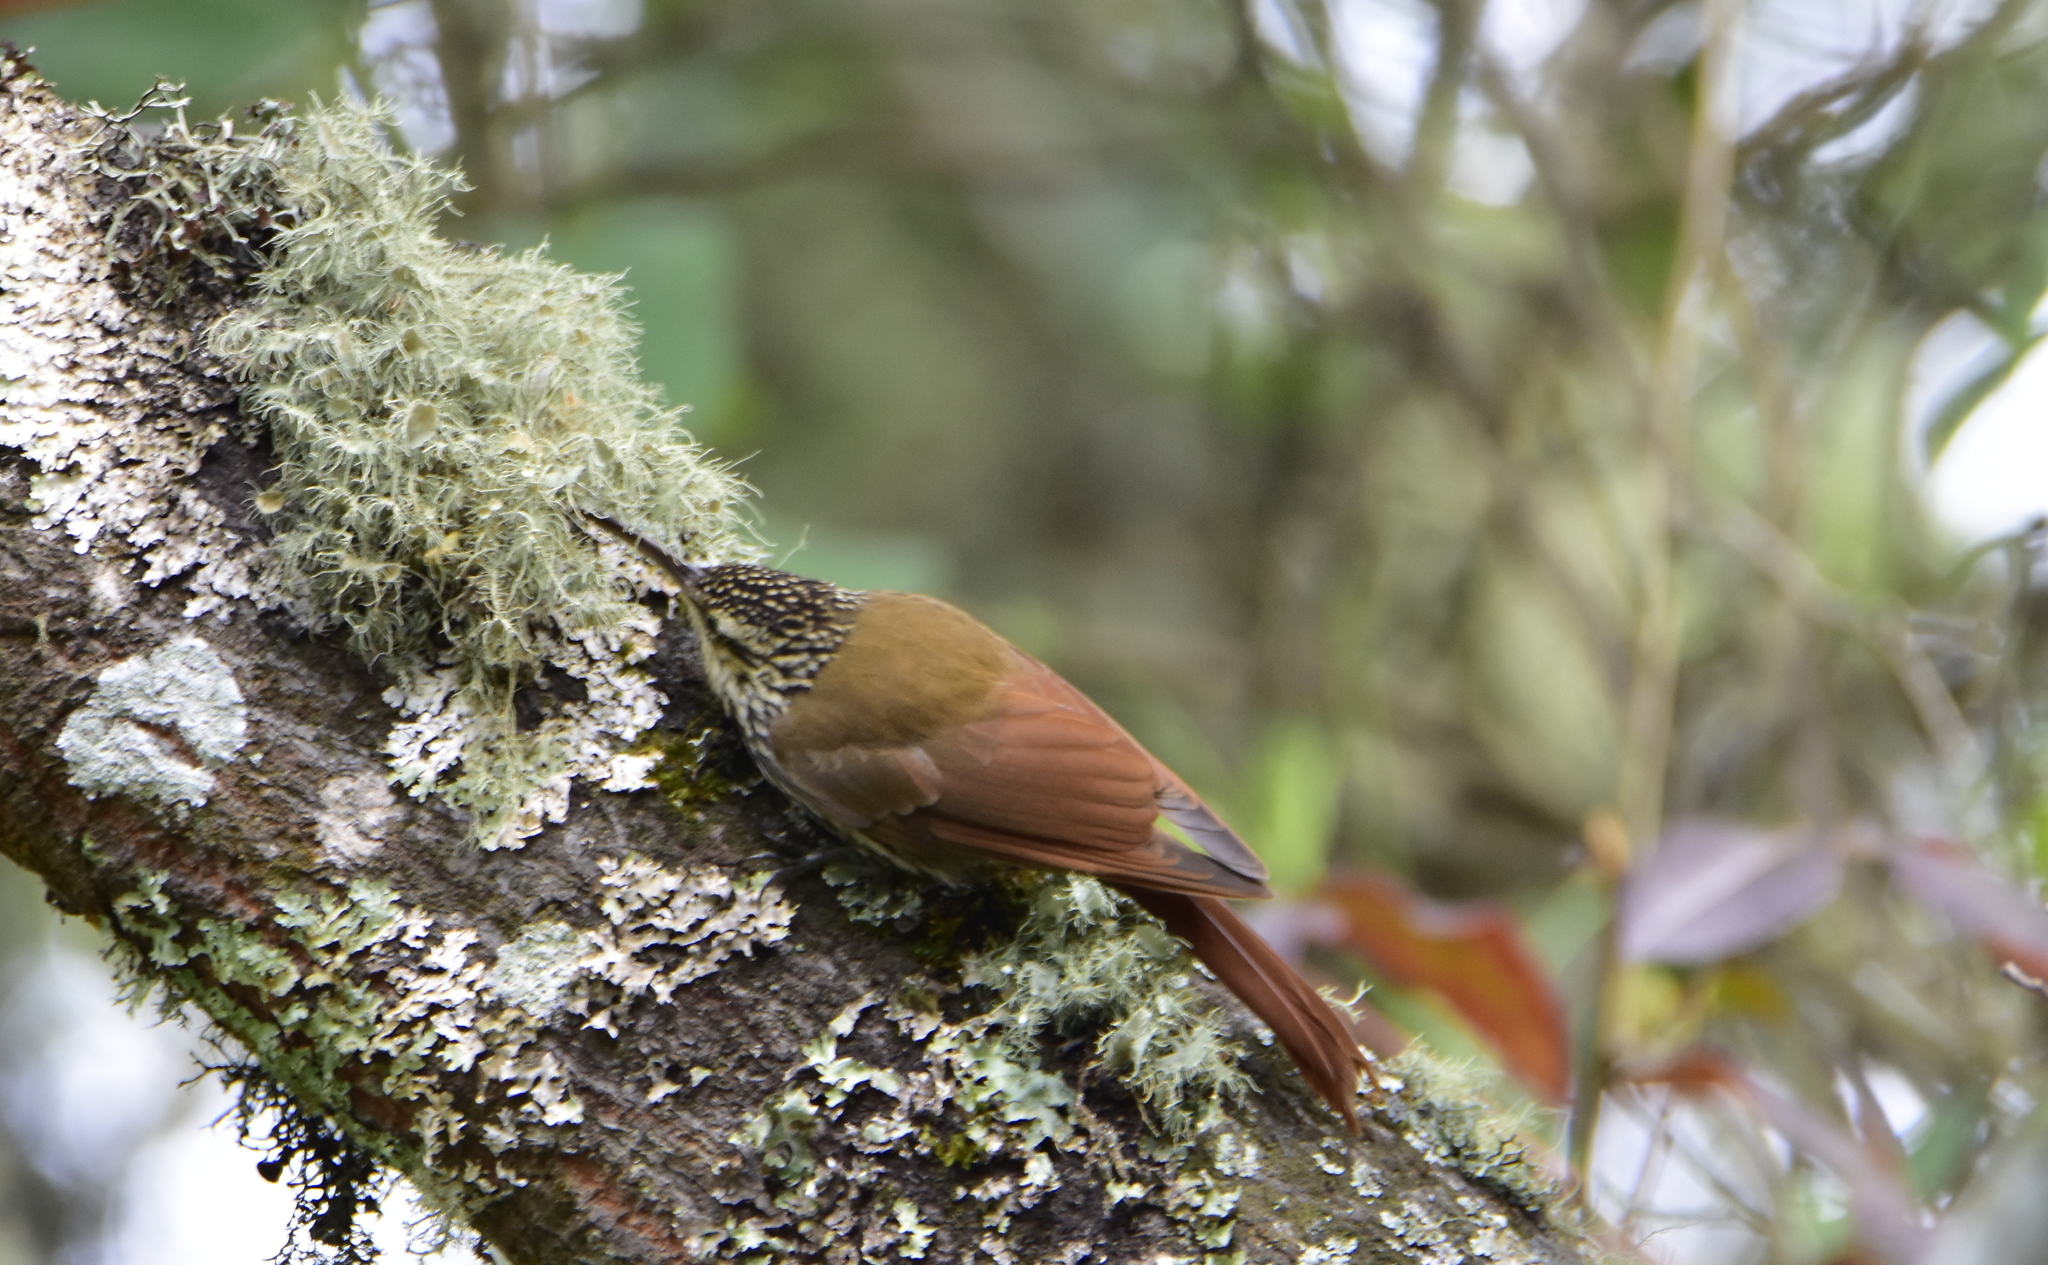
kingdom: Animalia
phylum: Chordata
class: Aves
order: Passeriformes
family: Furnariidae
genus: Lepidocolaptes
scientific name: Lepidocolaptes leucogaster
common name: White-striped woodcreeper
